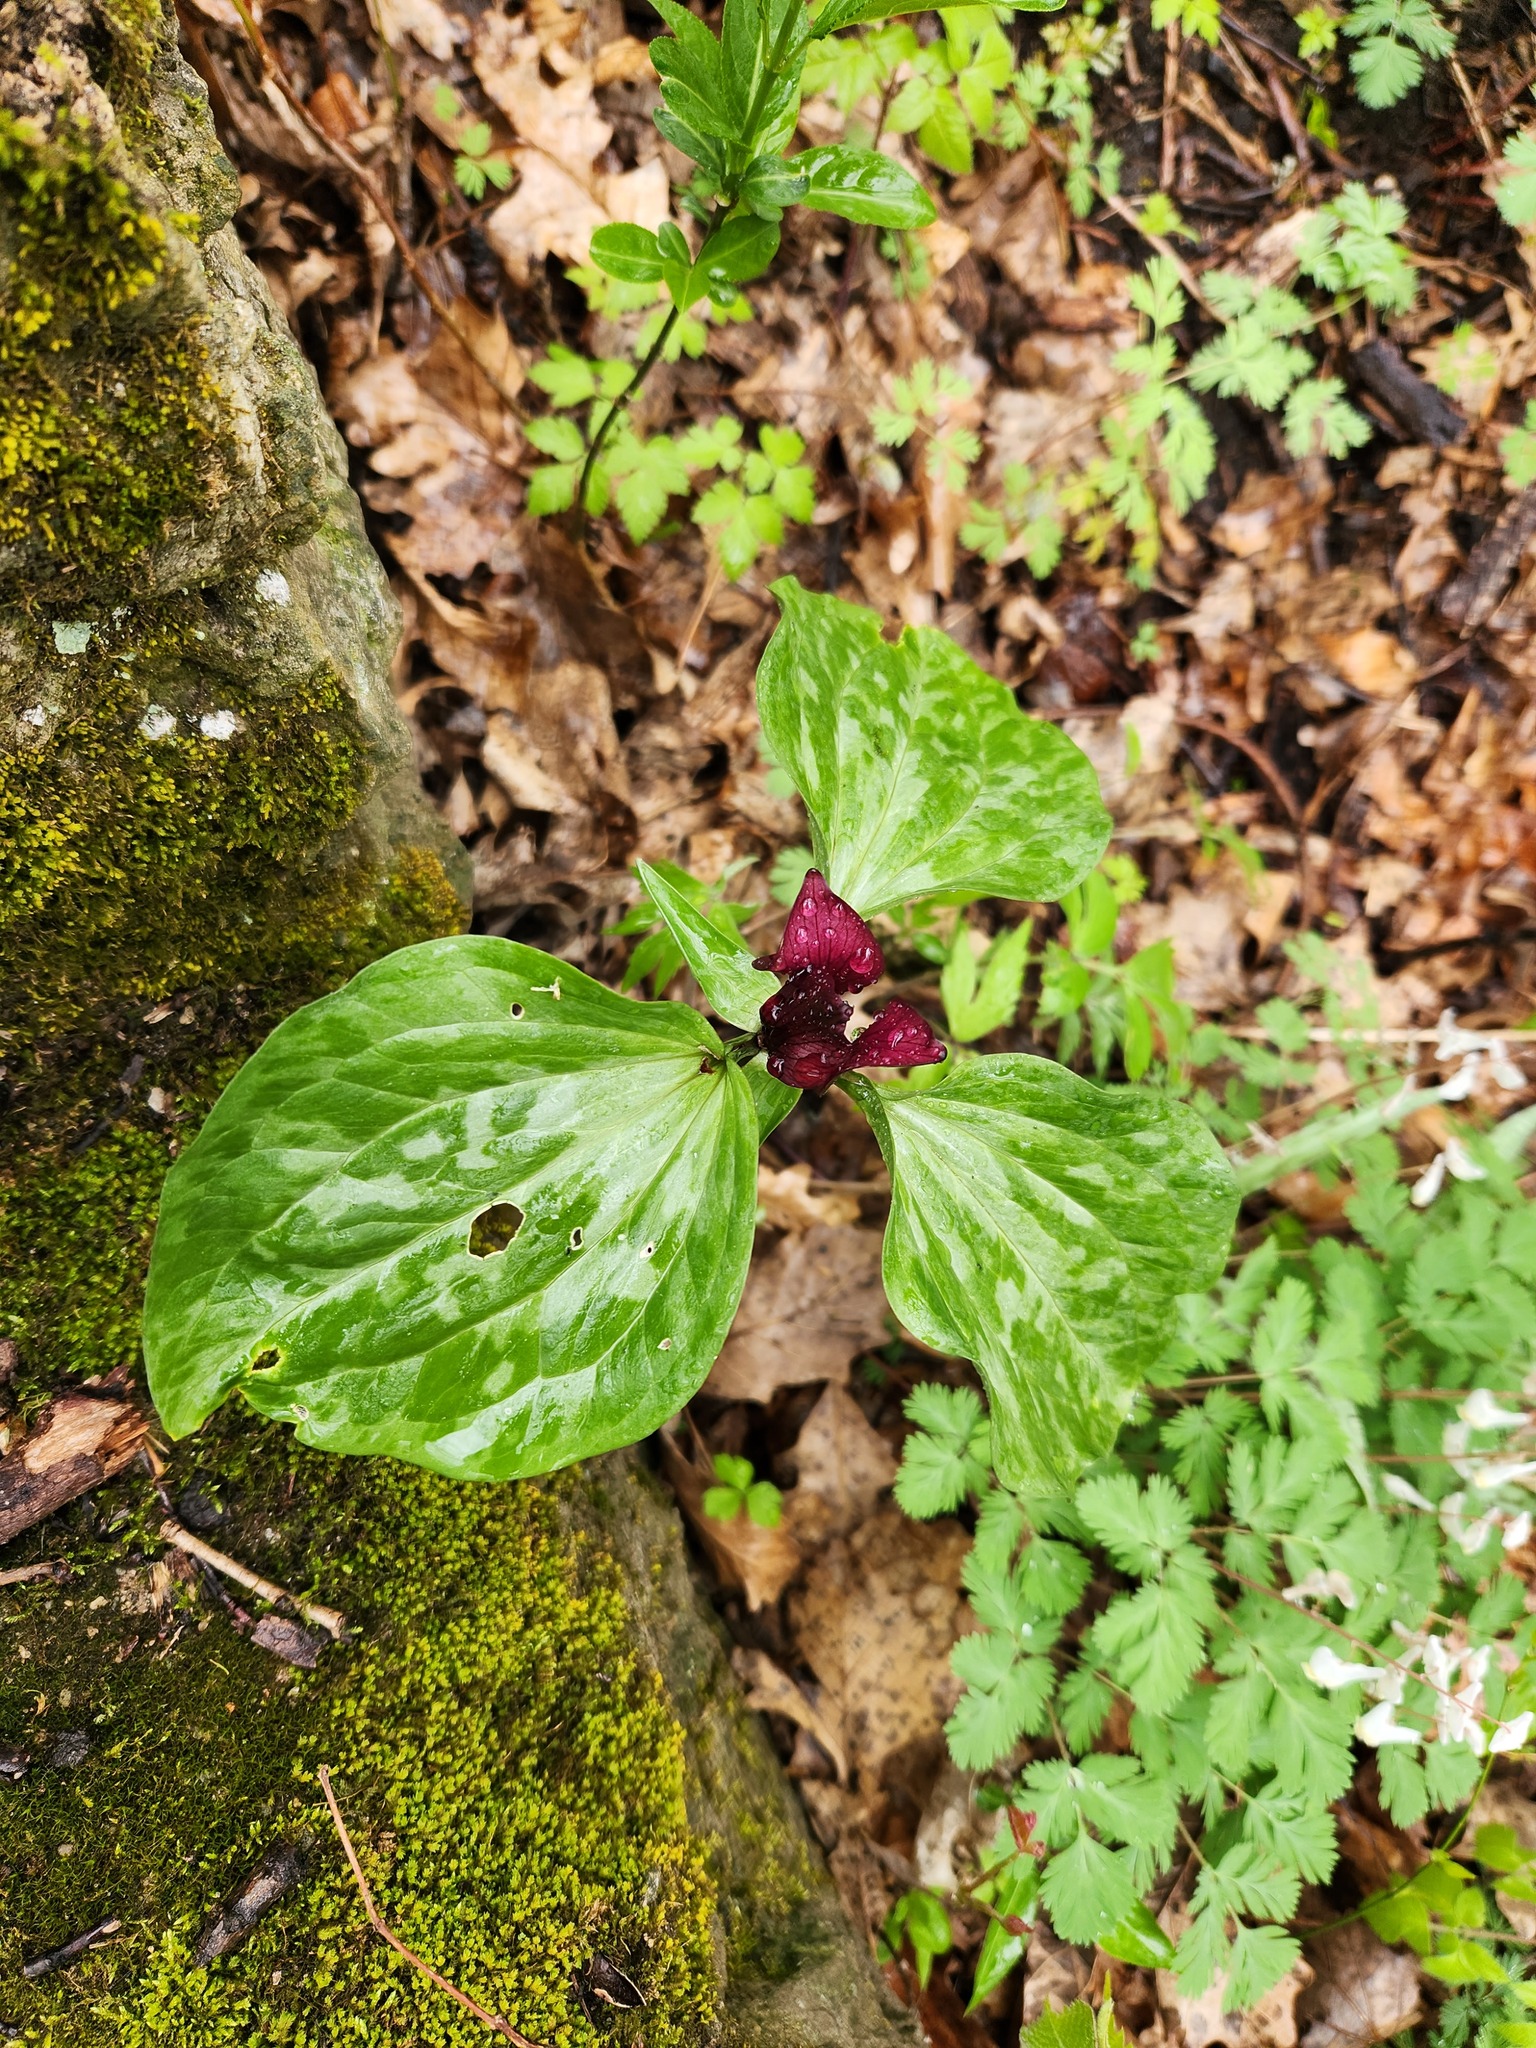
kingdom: Plantae
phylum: Tracheophyta
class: Liliopsida
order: Liliales
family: Melanthiaceae
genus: Trillium
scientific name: Trillium recurvatum
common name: Bloody butcher
